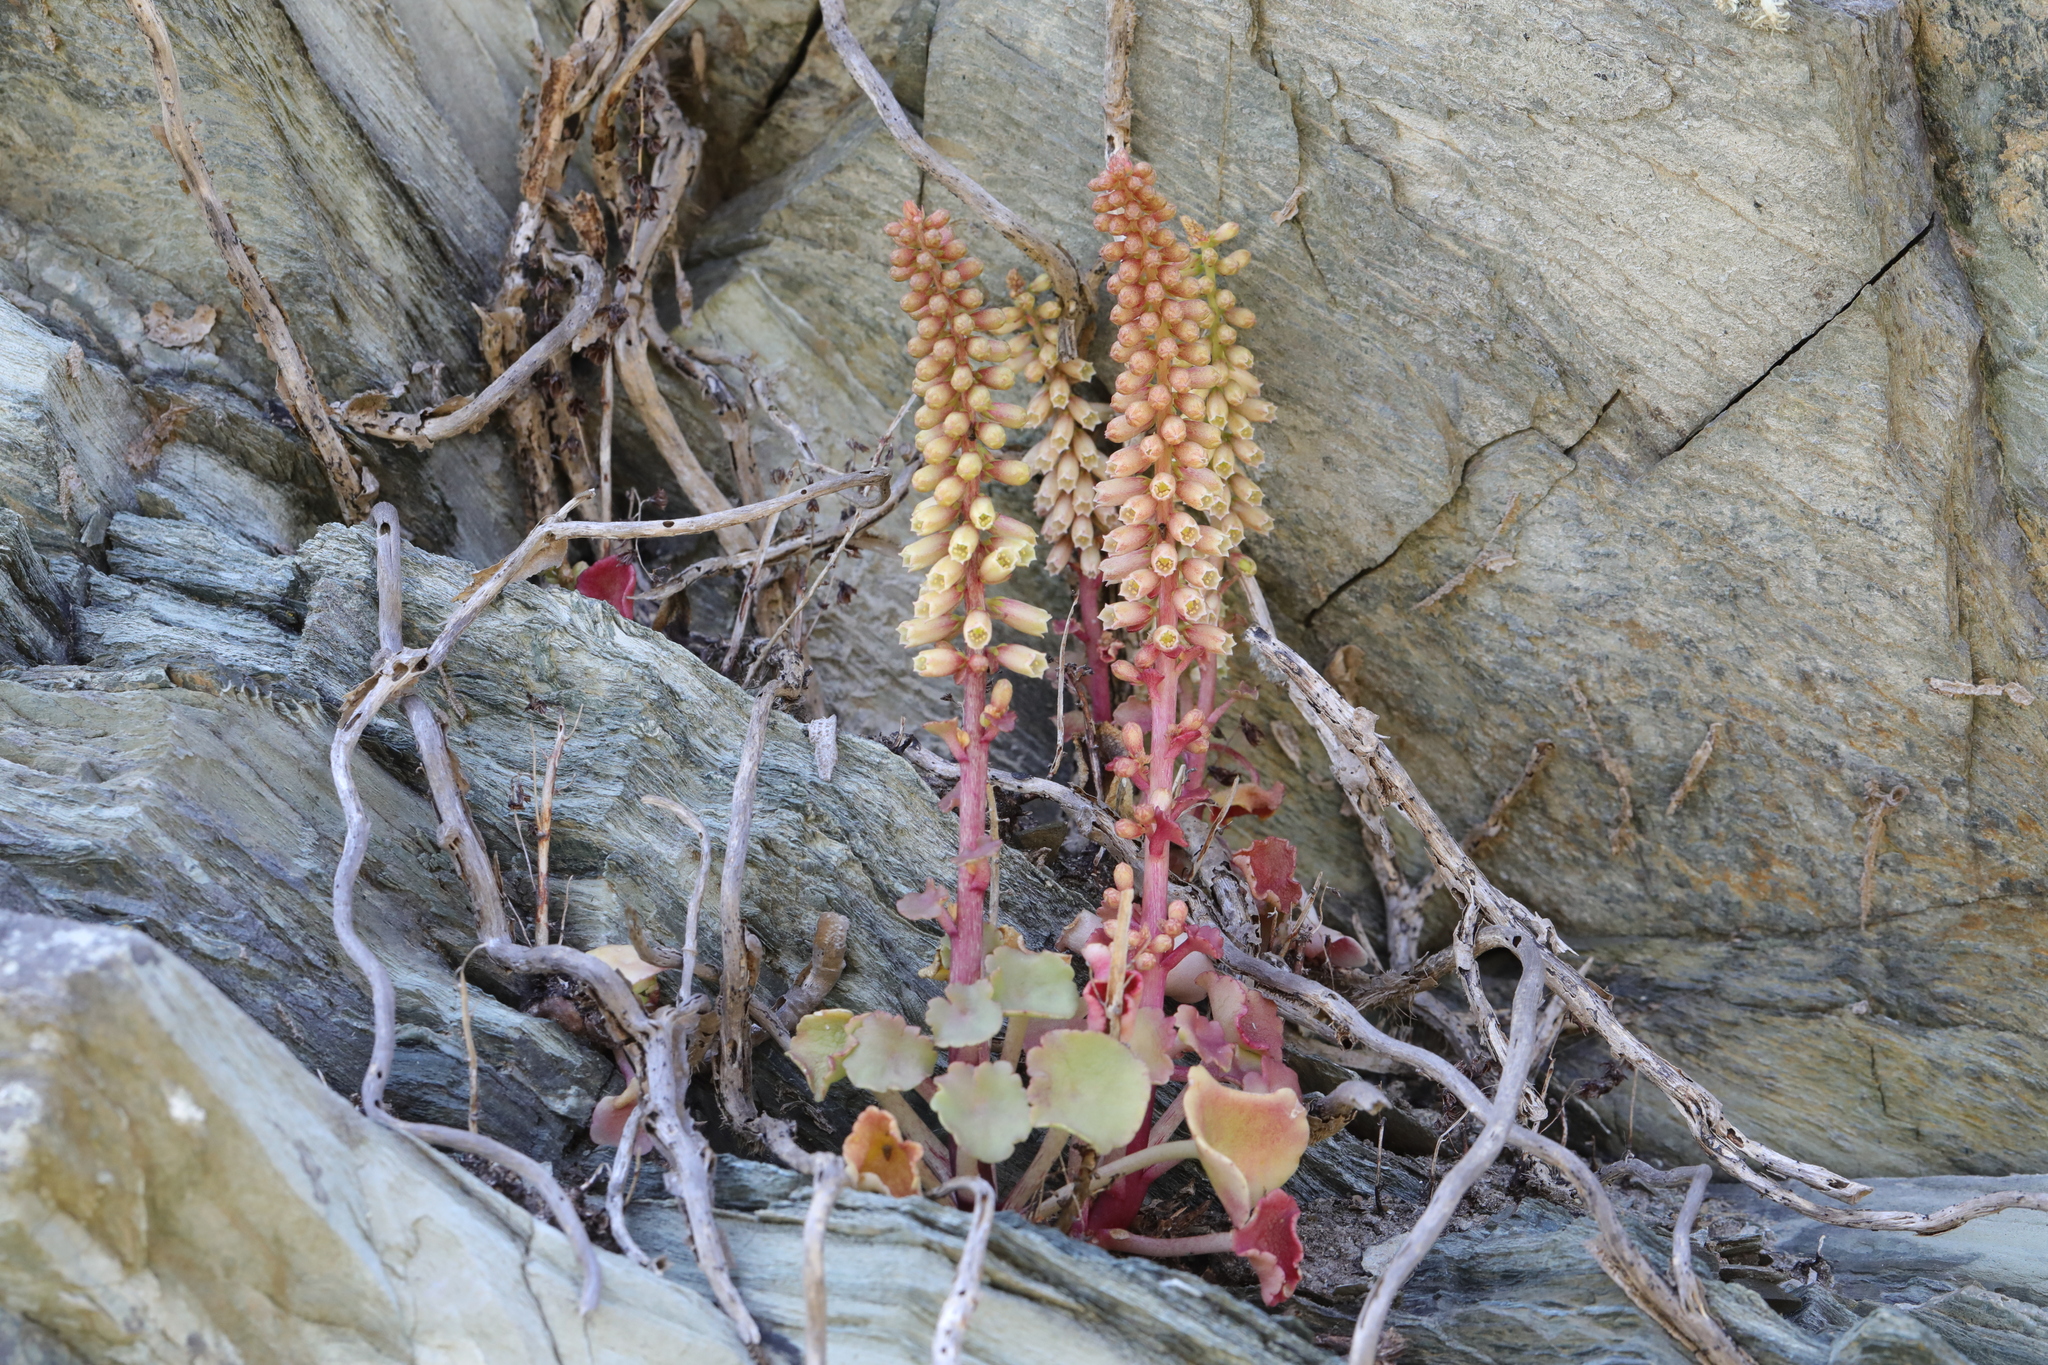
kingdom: Plantae
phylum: Tracheophyta
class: Magnoliopsida
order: Saxifragales
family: Crassulaceae
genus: Umbilicus
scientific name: Umbilicus rupestris
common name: Navelwort
